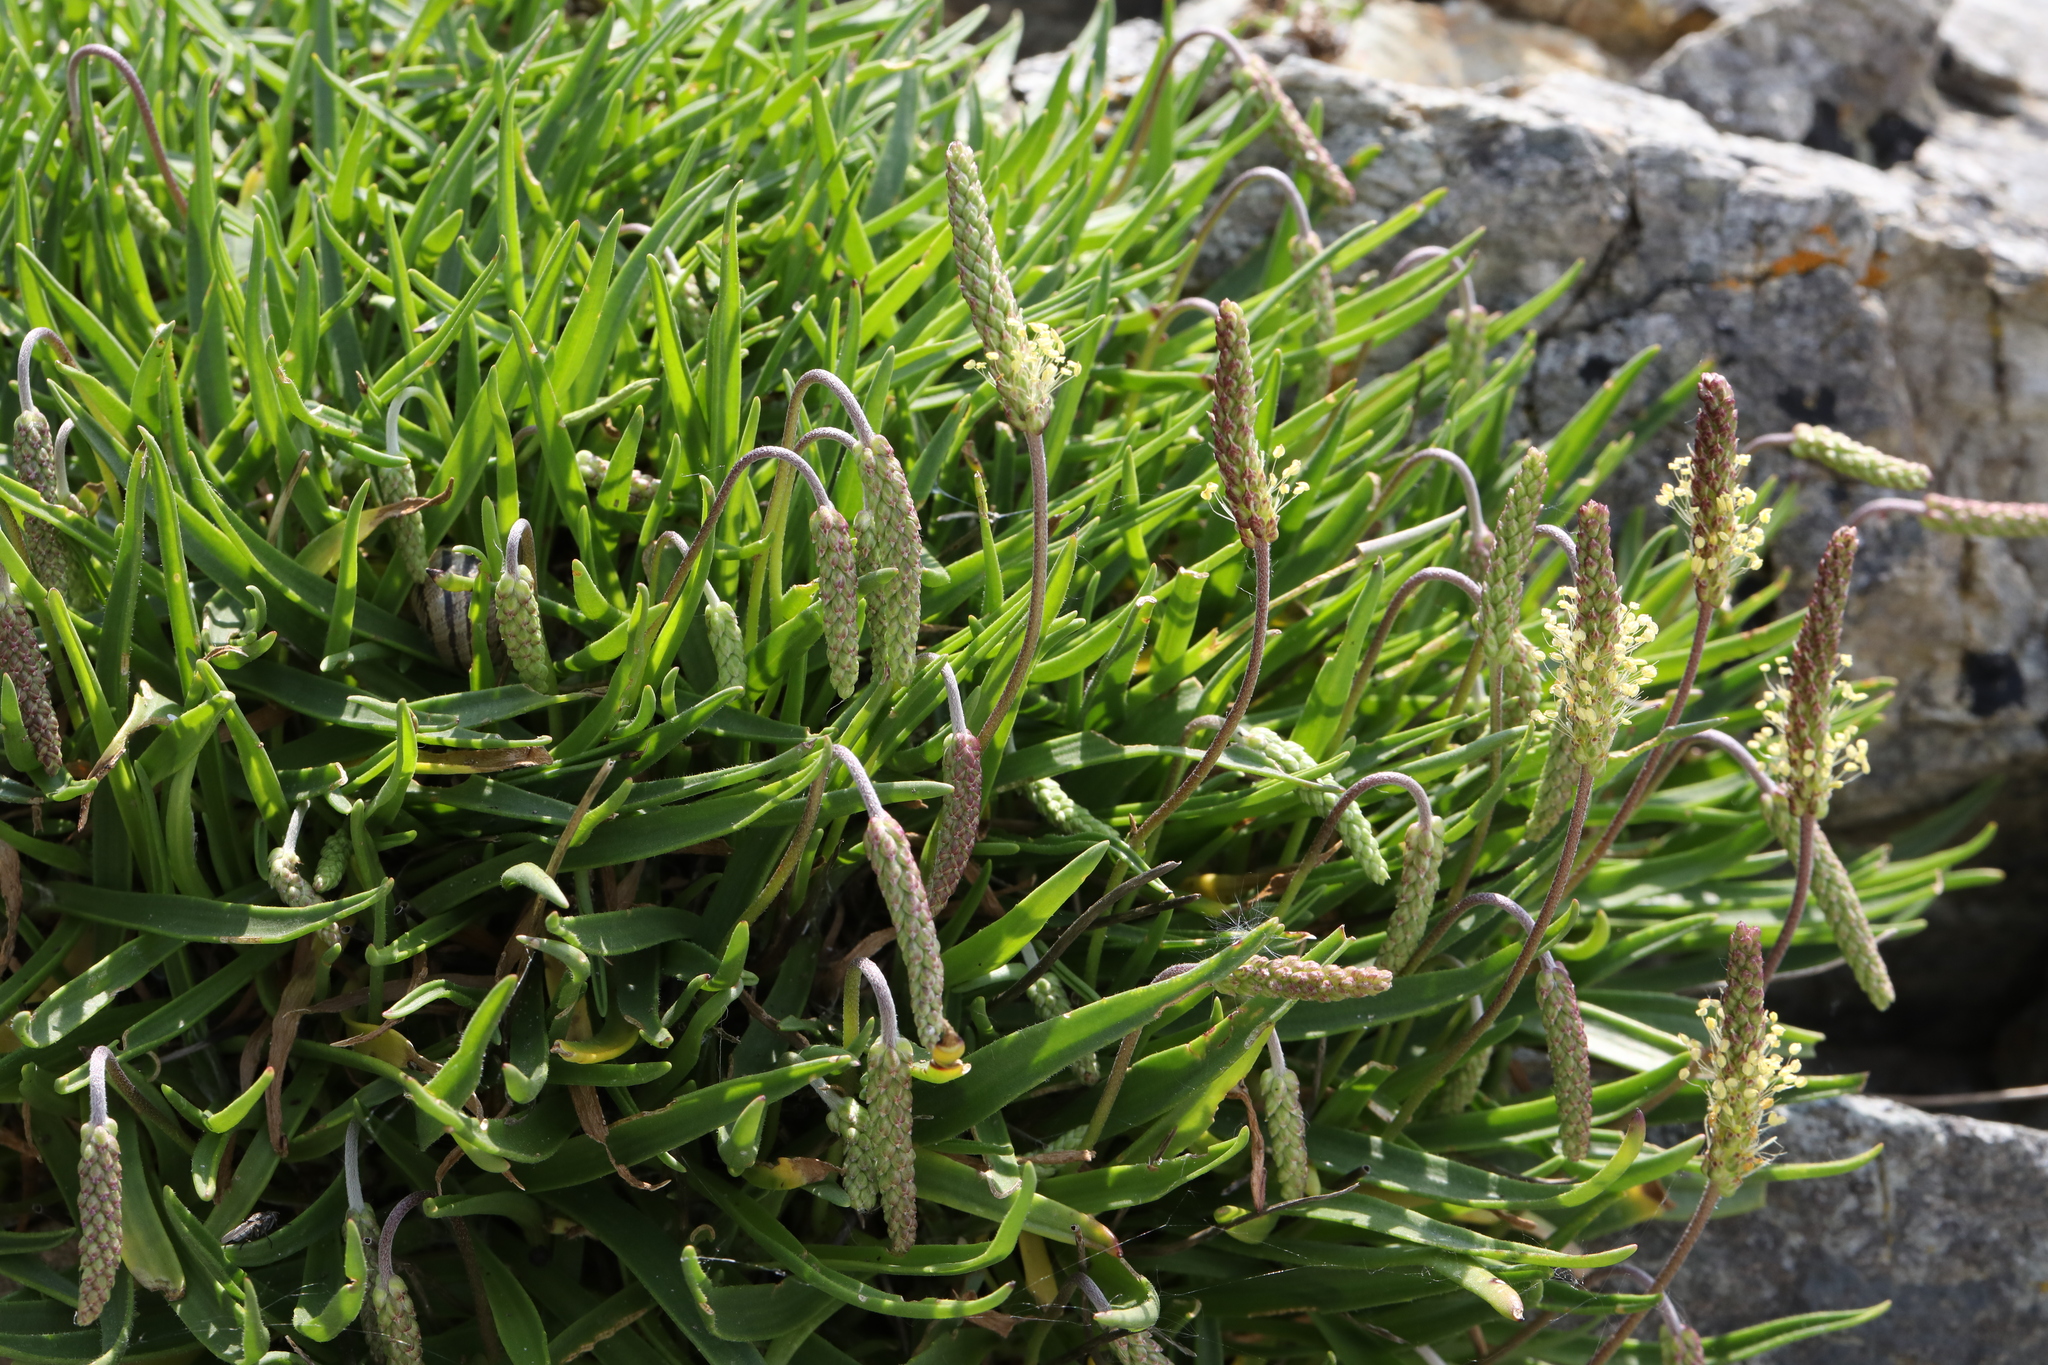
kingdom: Plantae
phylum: Tracheophyta
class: Magnoliopsida
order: Lamiales
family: Plantaginaceae
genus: Plantago
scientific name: Plantago maritima
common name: Sea plantain
